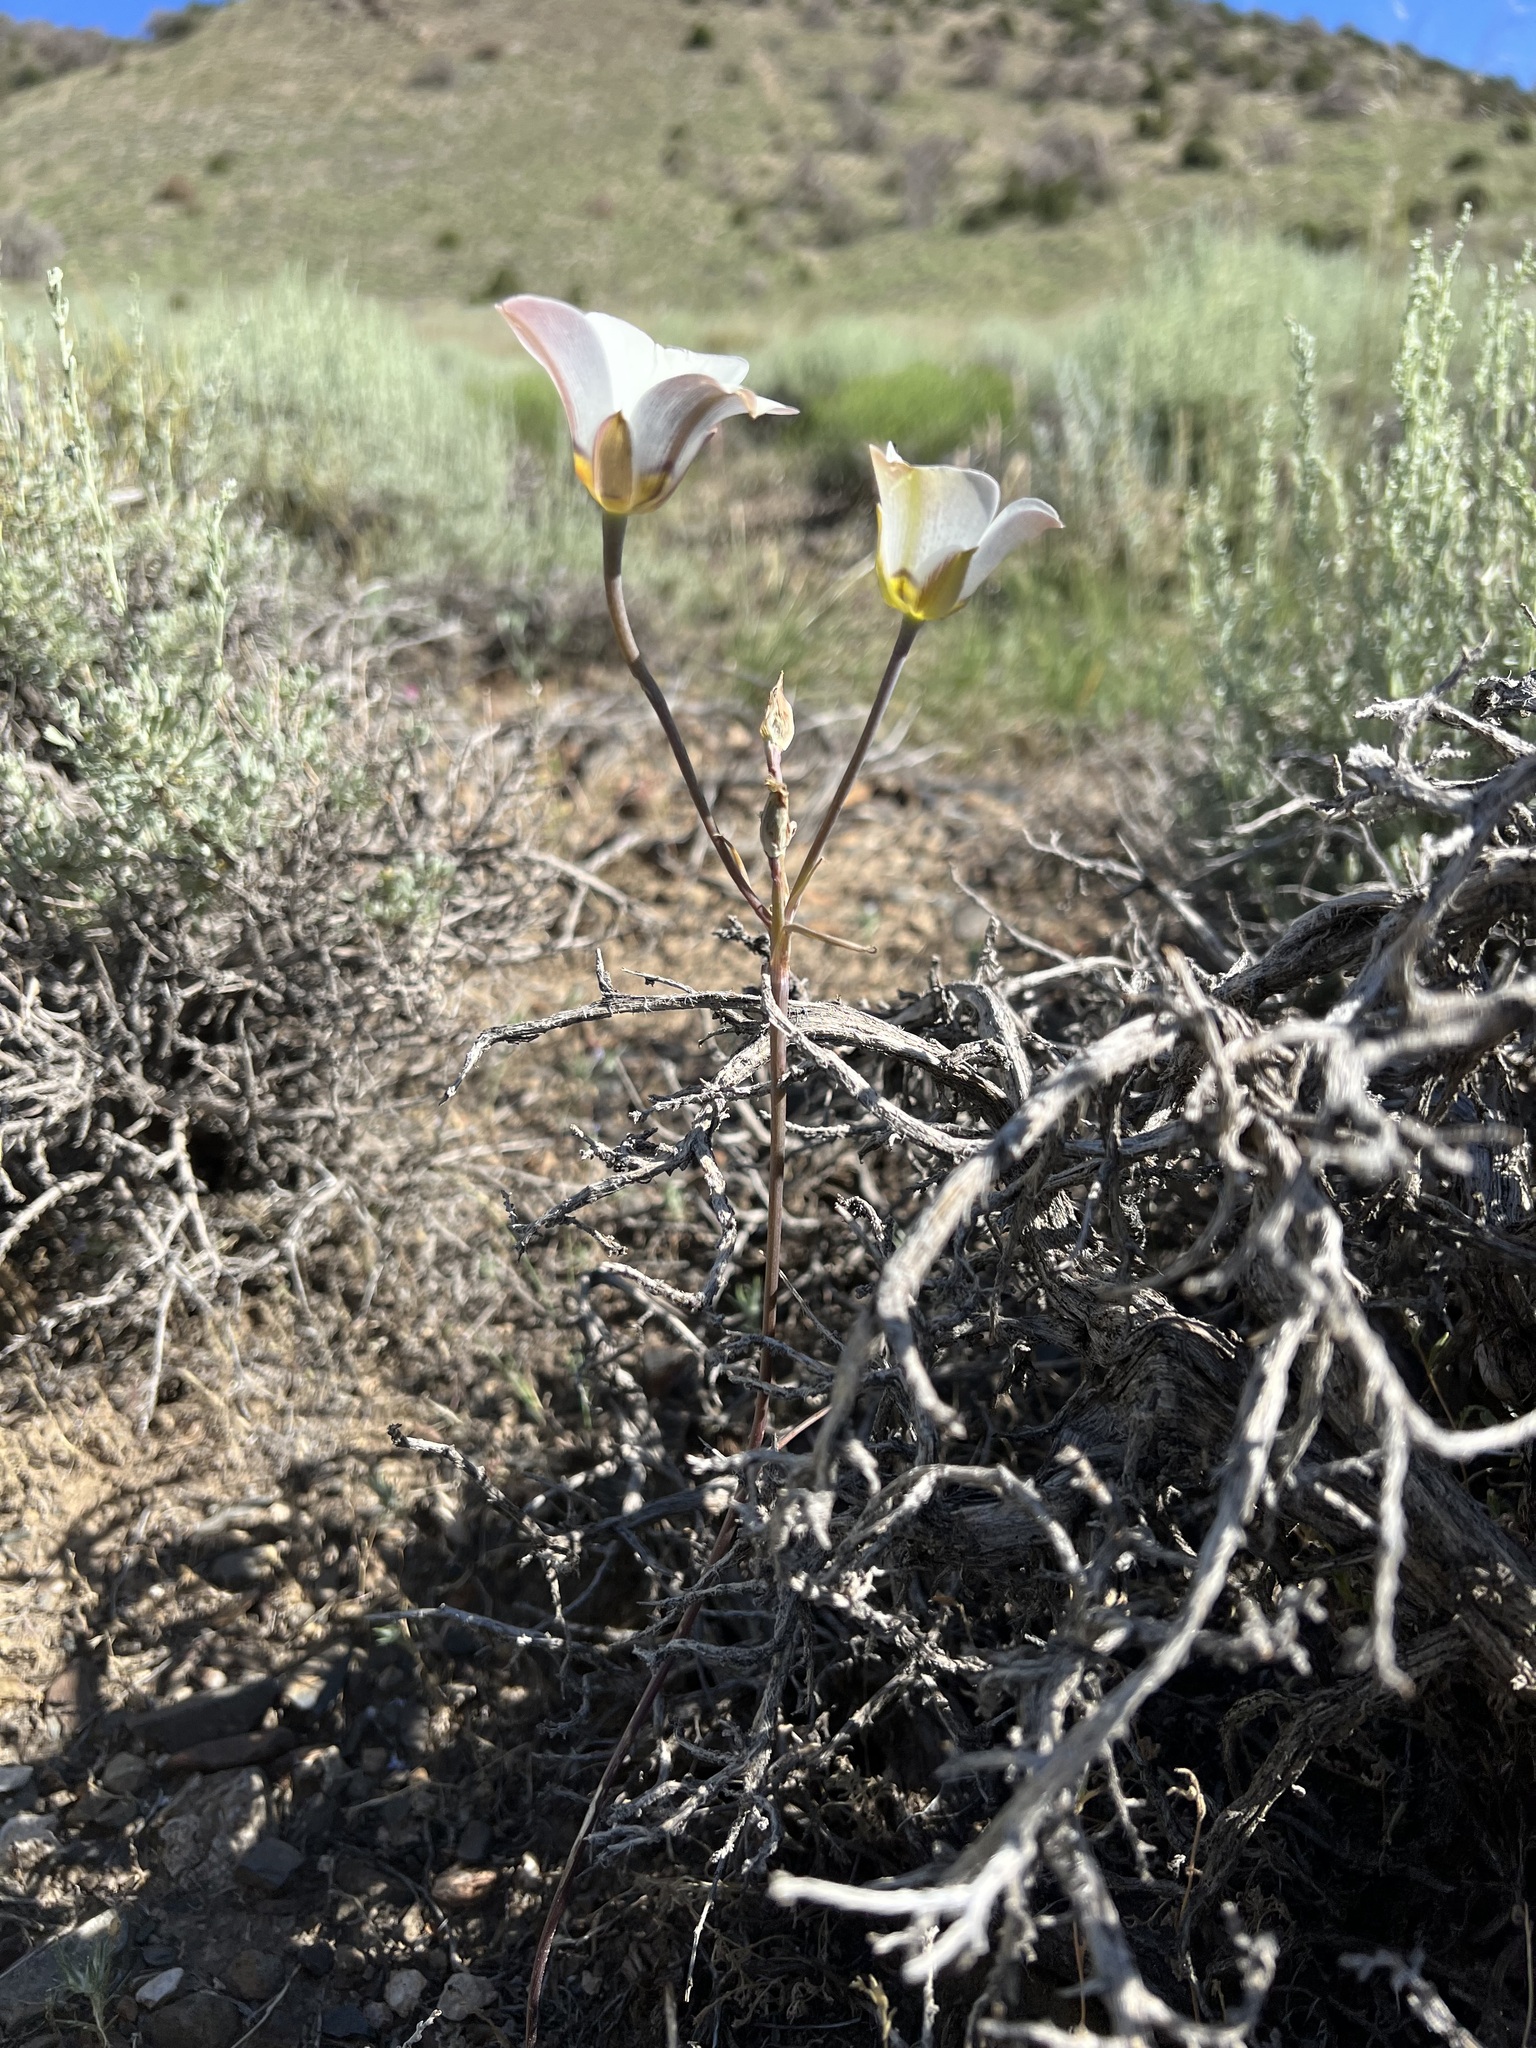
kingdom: Plantae
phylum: Tracheophyta
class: Liliopsida
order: Liliales
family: Liliaceae
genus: Calochortus
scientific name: Calochortus bruneaunis
